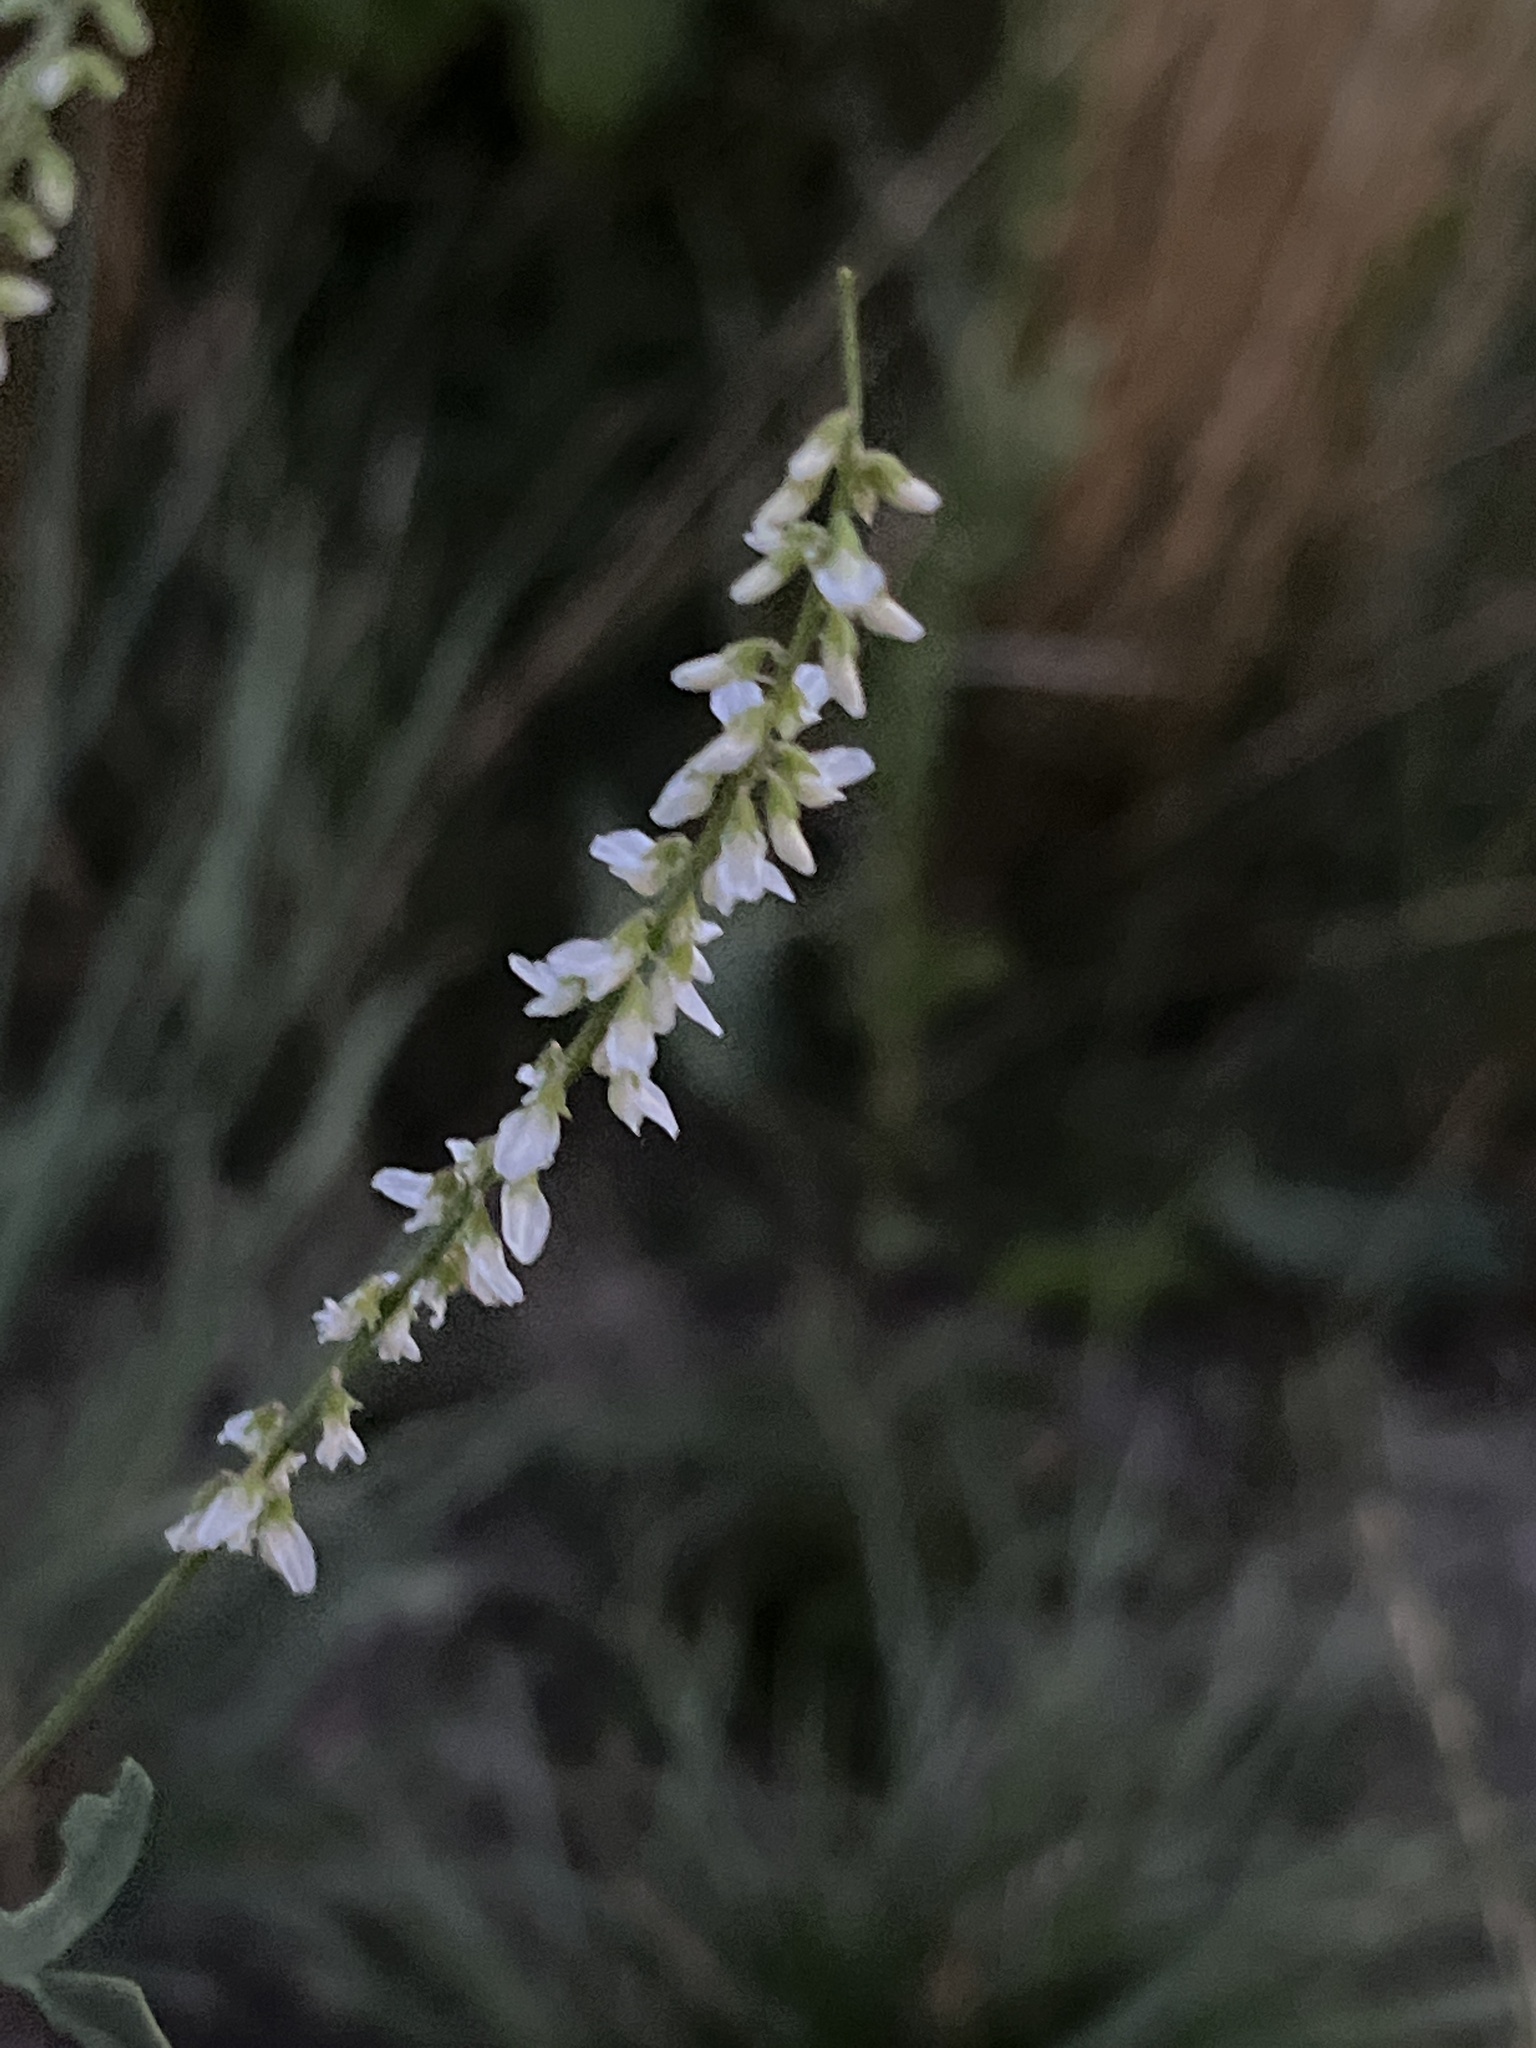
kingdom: Plantae
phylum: Tracheophyta
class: Magnoliopsida
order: Fabales
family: Fabaceae
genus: Melilotus
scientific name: Melilotus albus
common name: White melilot
